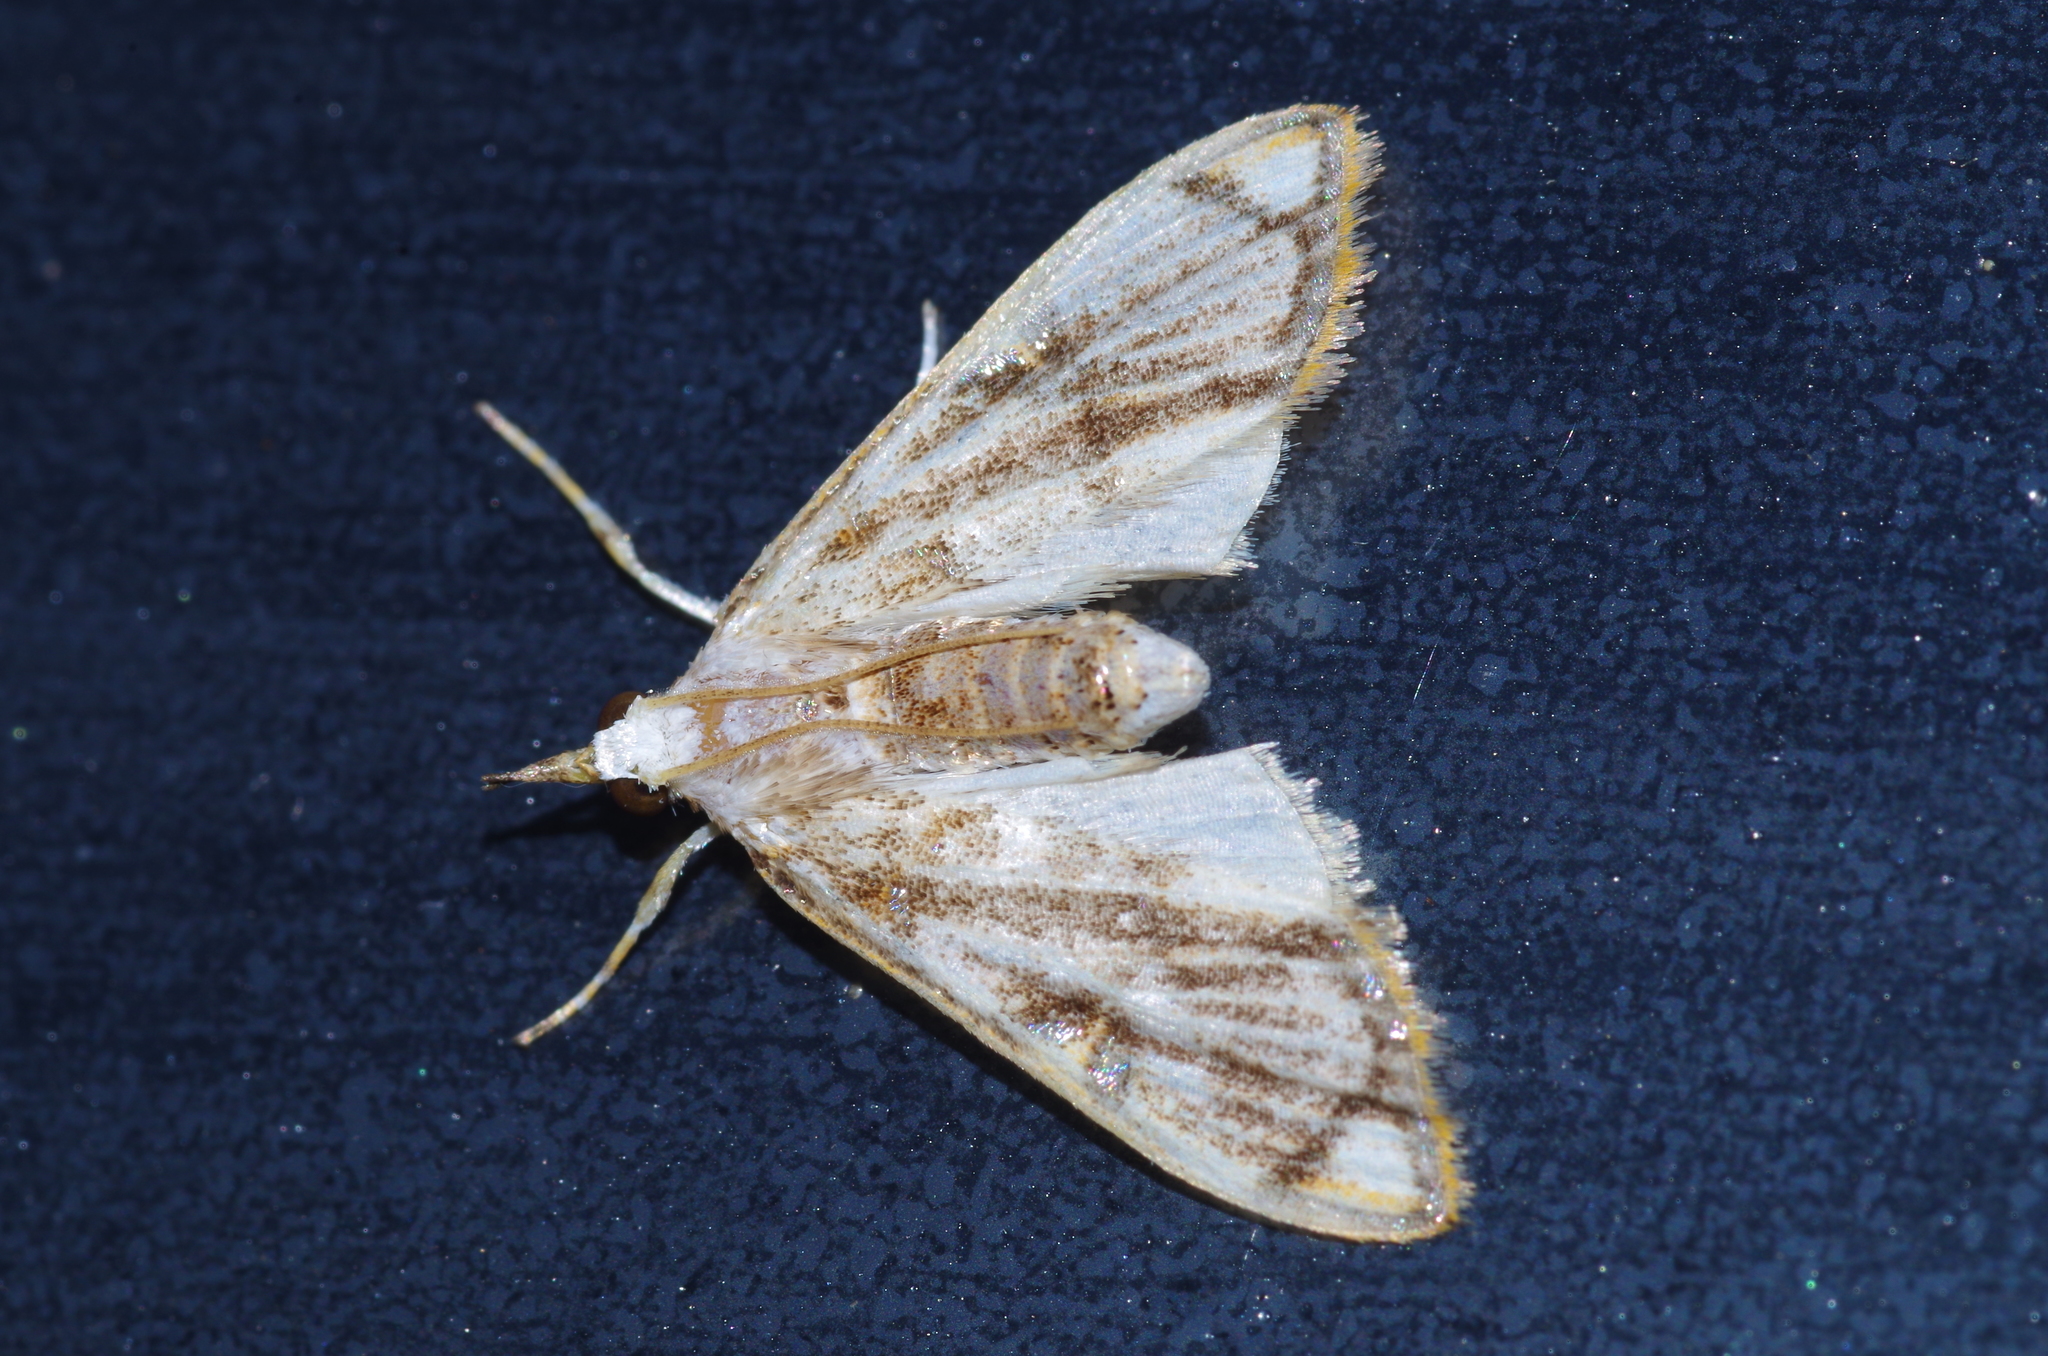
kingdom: Animalia
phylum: Arthropoda
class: Insecta
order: Lepidoptera
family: Crambidae
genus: Cirrhochrista
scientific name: Cirrhochrista kosemponialis
